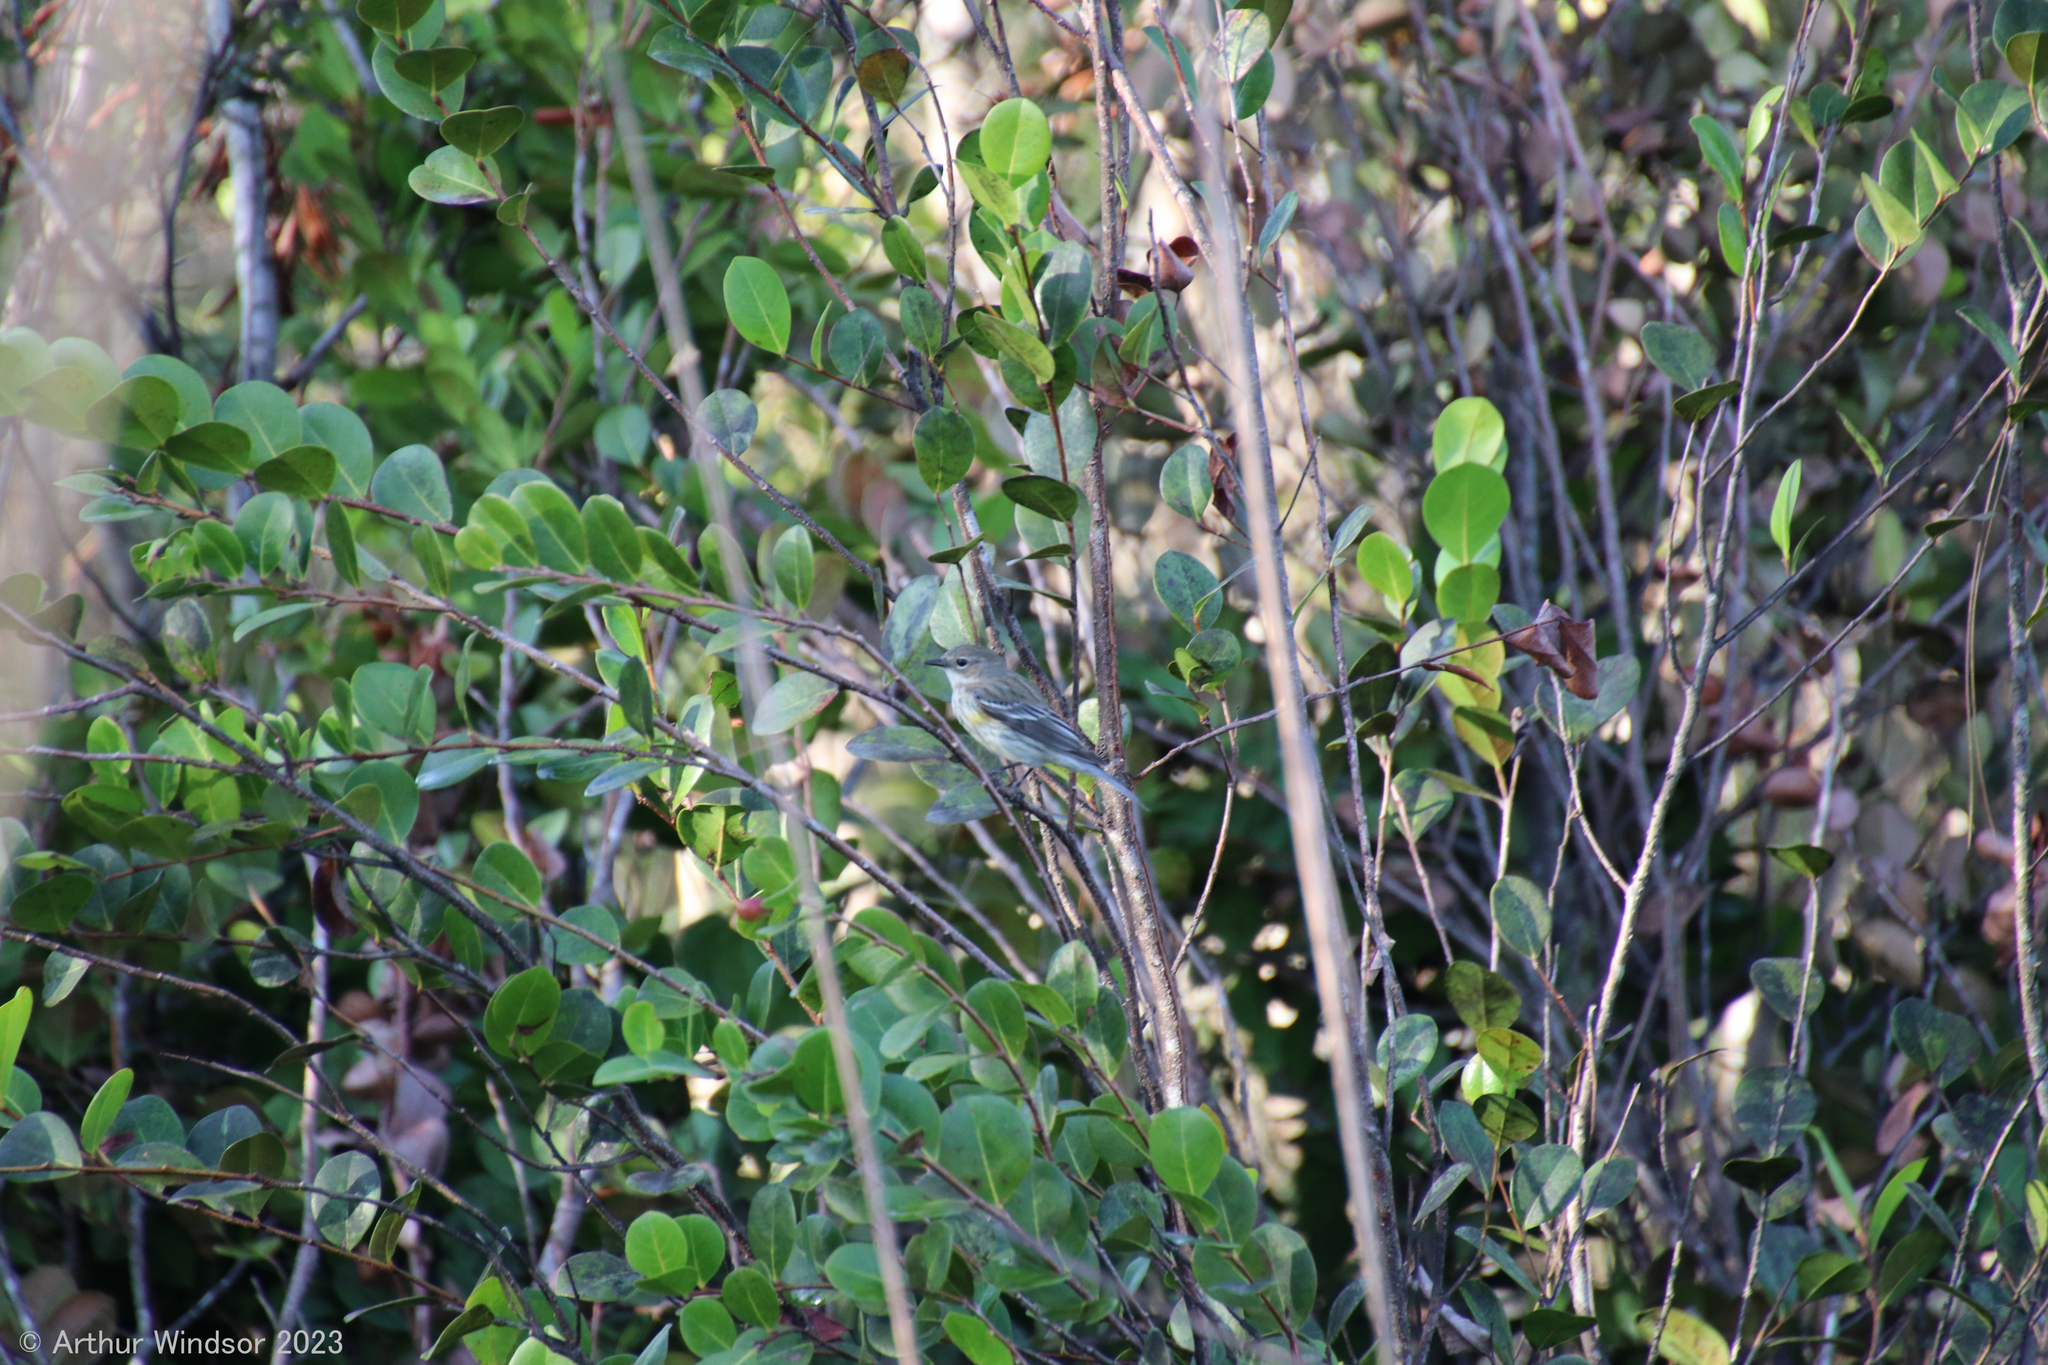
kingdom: Animalia
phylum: Chordata
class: Aves
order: Passeriformes
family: Parulidae
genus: Setophaga
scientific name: Setophaga coronata
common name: Myrtle warbler
